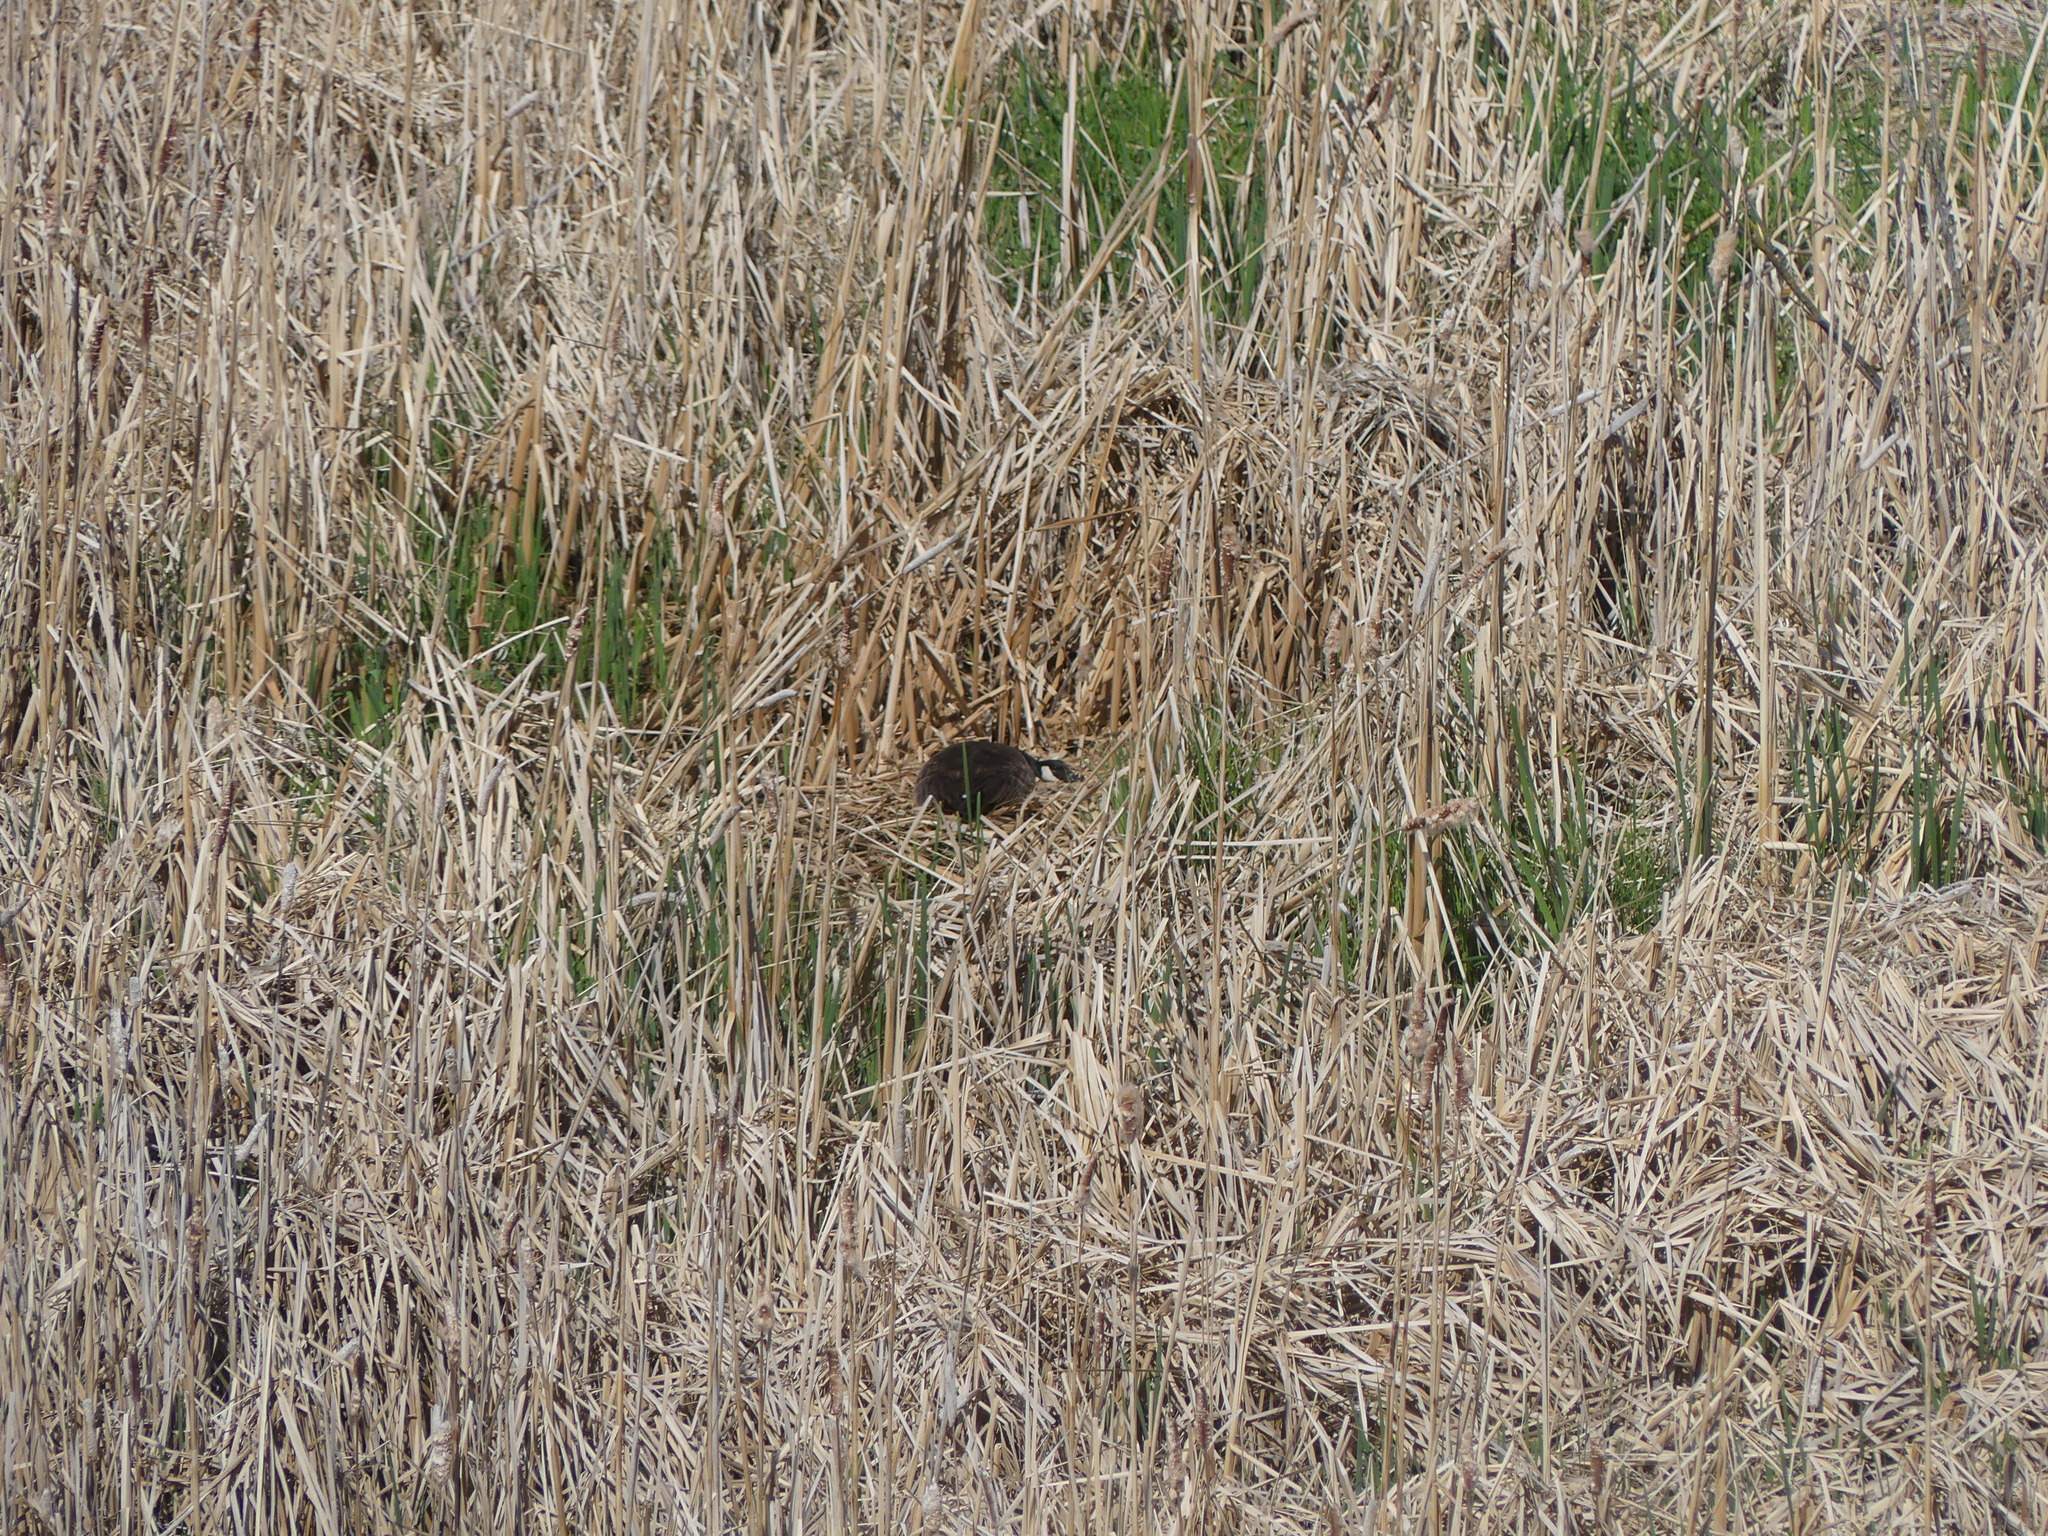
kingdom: Animalia
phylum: Chordata
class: Aves
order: Anseriformes
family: Anatidae
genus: Branta
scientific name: Branta canadensis
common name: Canada goose
